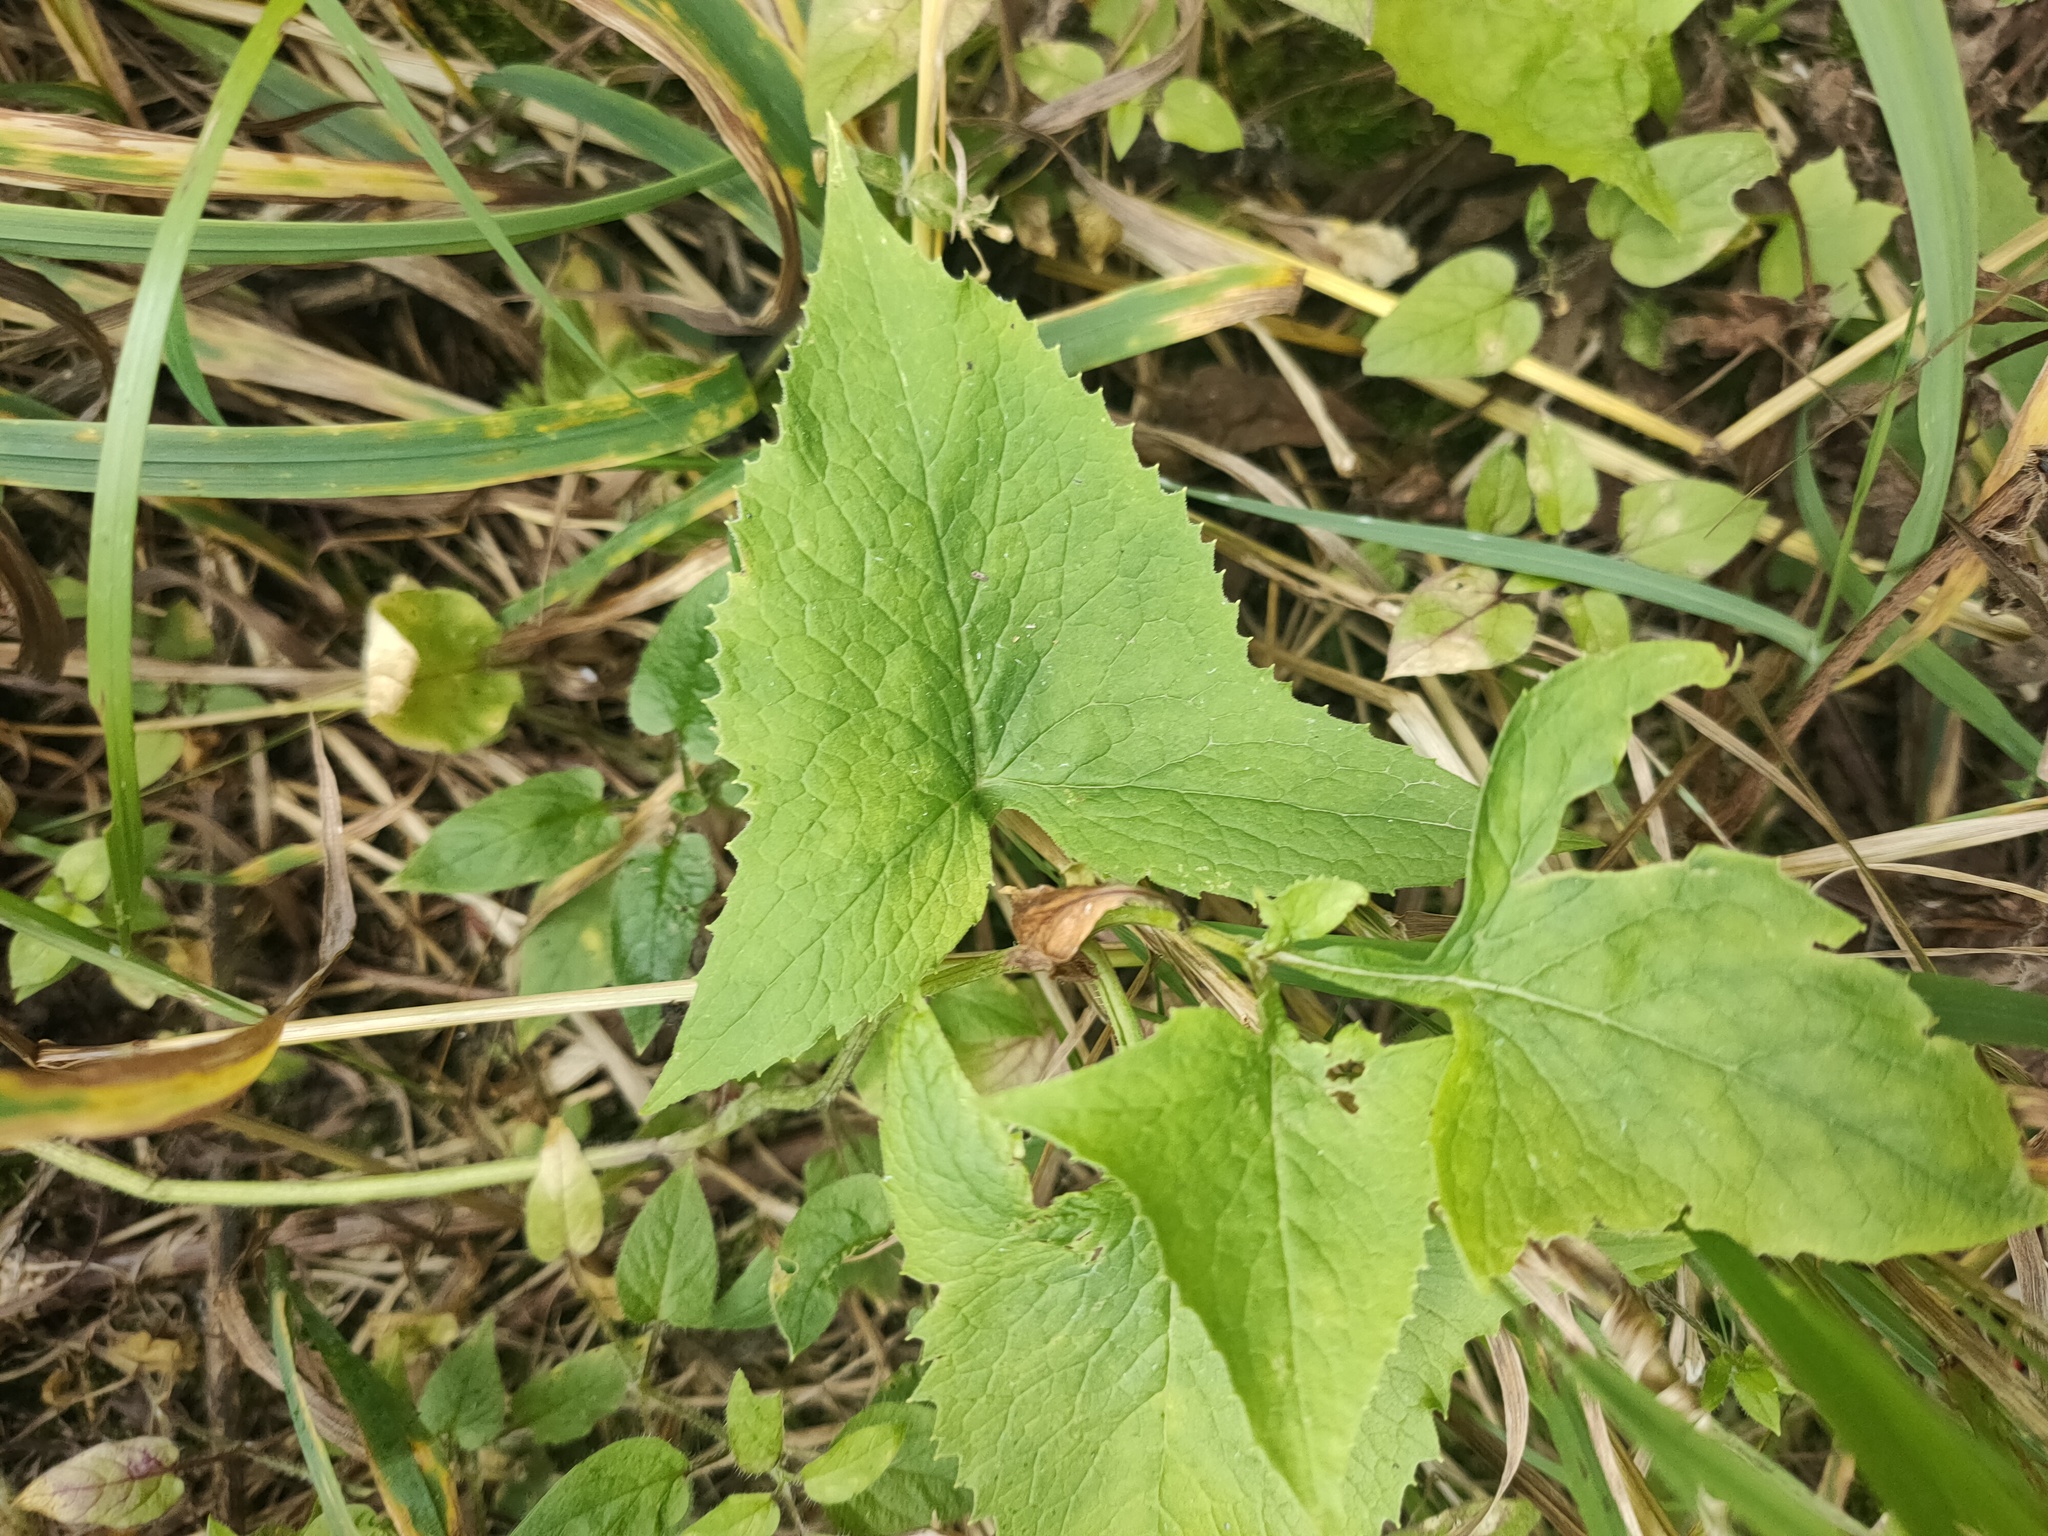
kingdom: Plantae
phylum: Tracheophyta
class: Magnoliopsida
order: Asterales
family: Asteraceae
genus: Parasenecio
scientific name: Parasenecio hastatus
